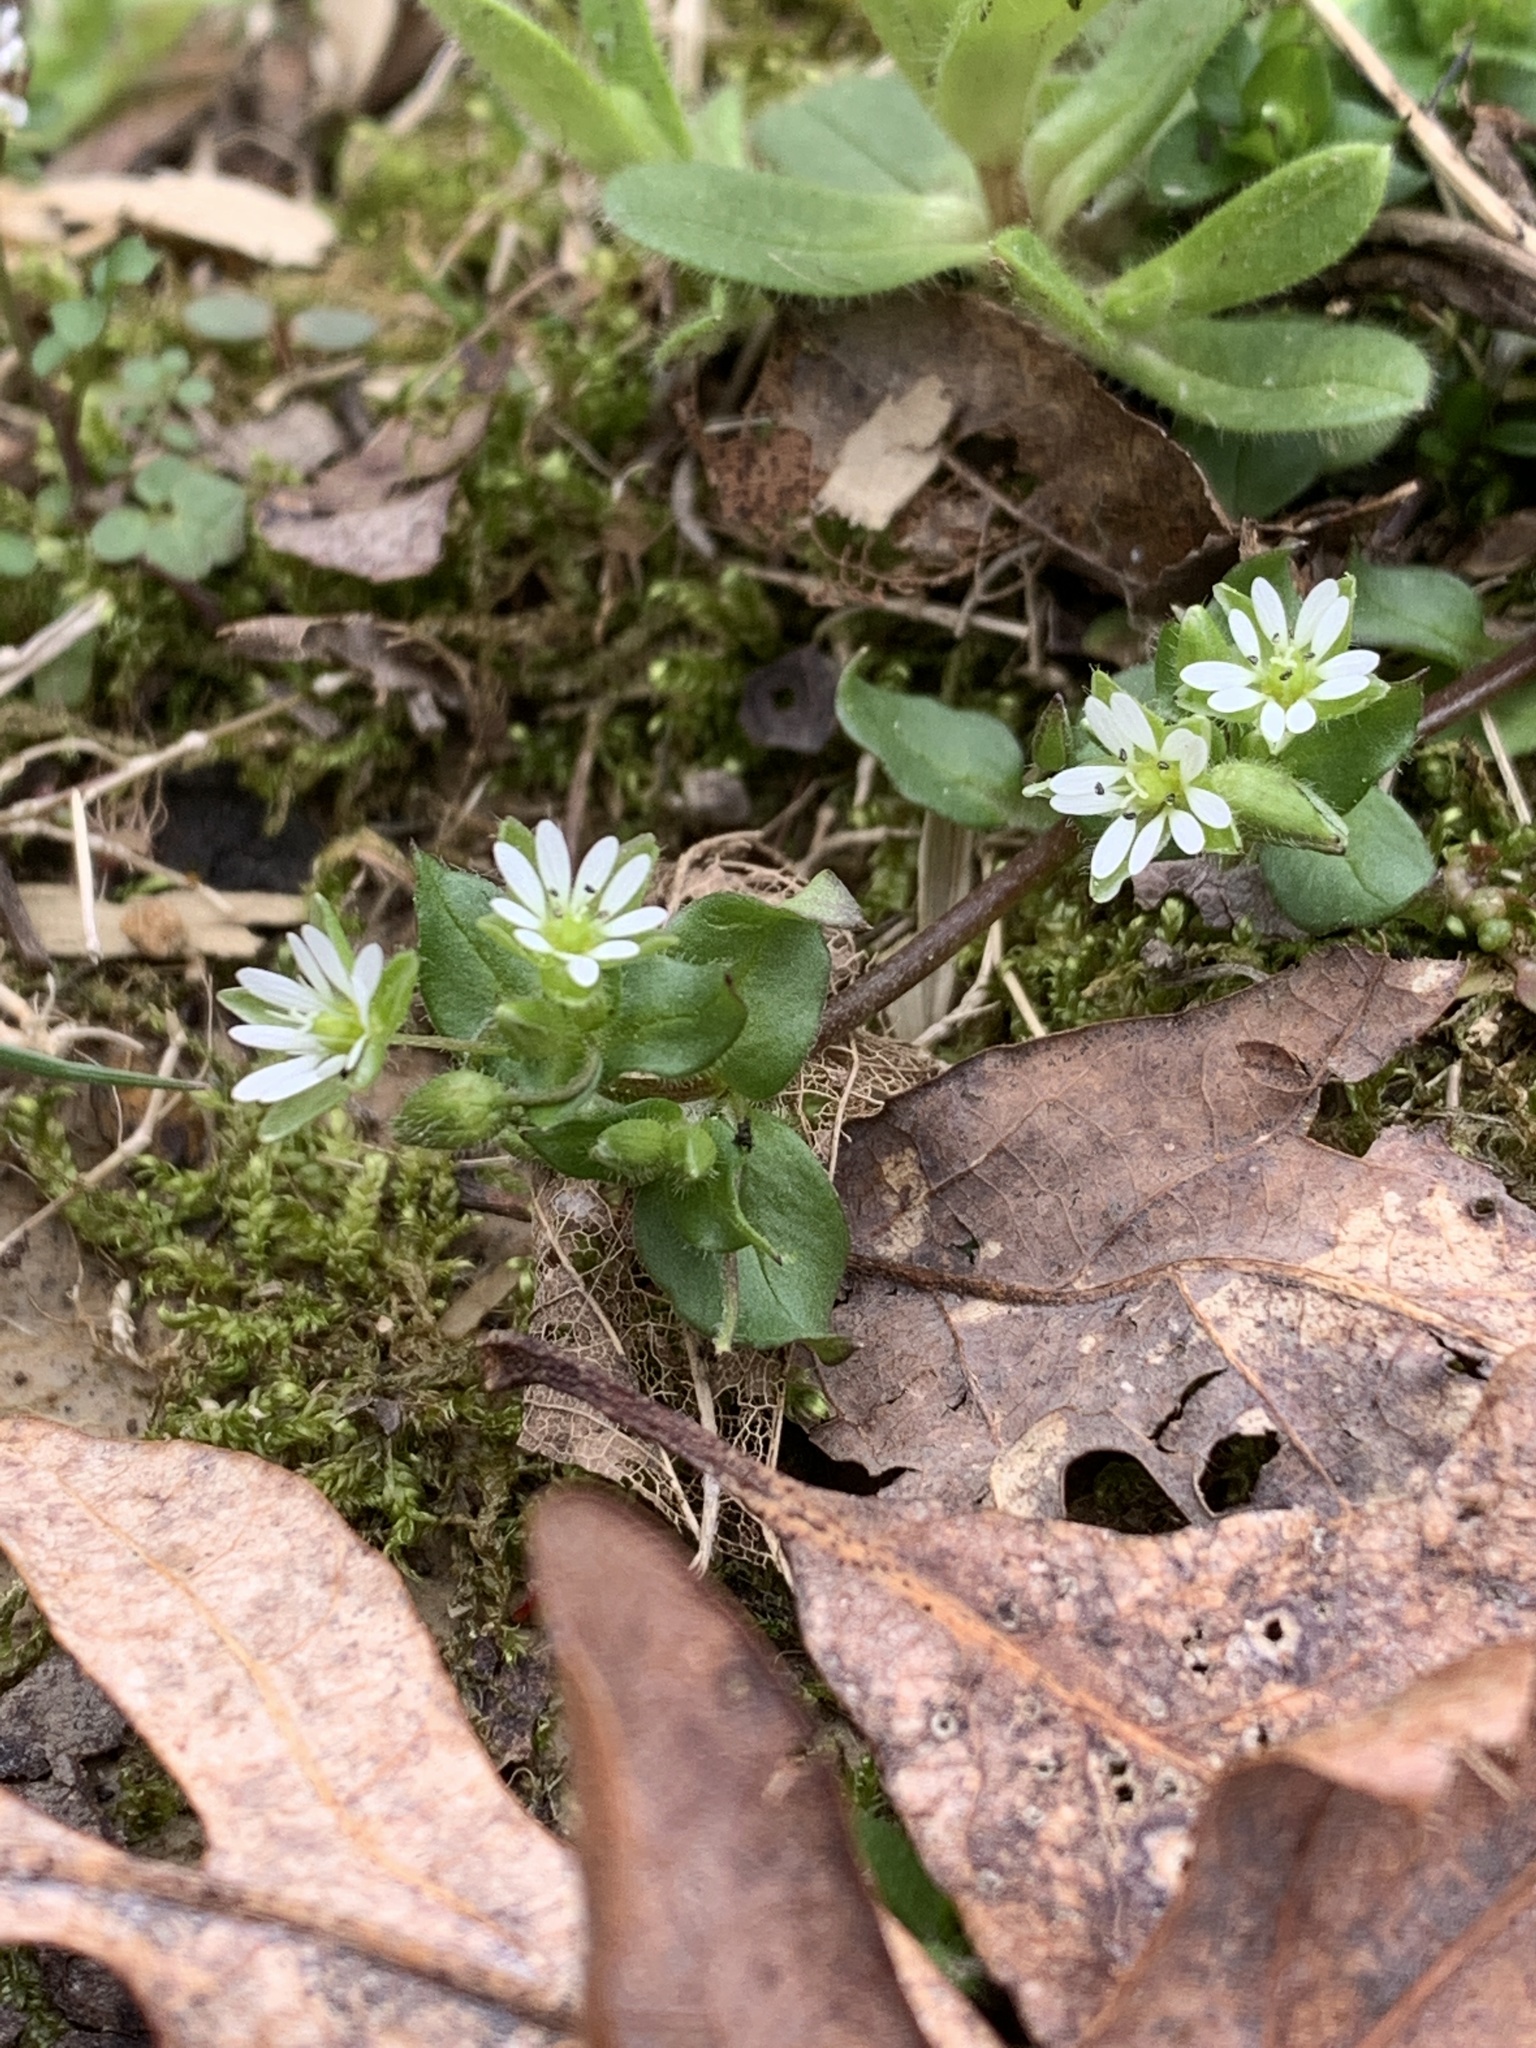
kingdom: Plantae
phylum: Tracheophyta
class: Magnoliopsida
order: Caryophyllales
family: Caryophyllaceae
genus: Stellaria
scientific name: Stellaria media
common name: Common chickweed
